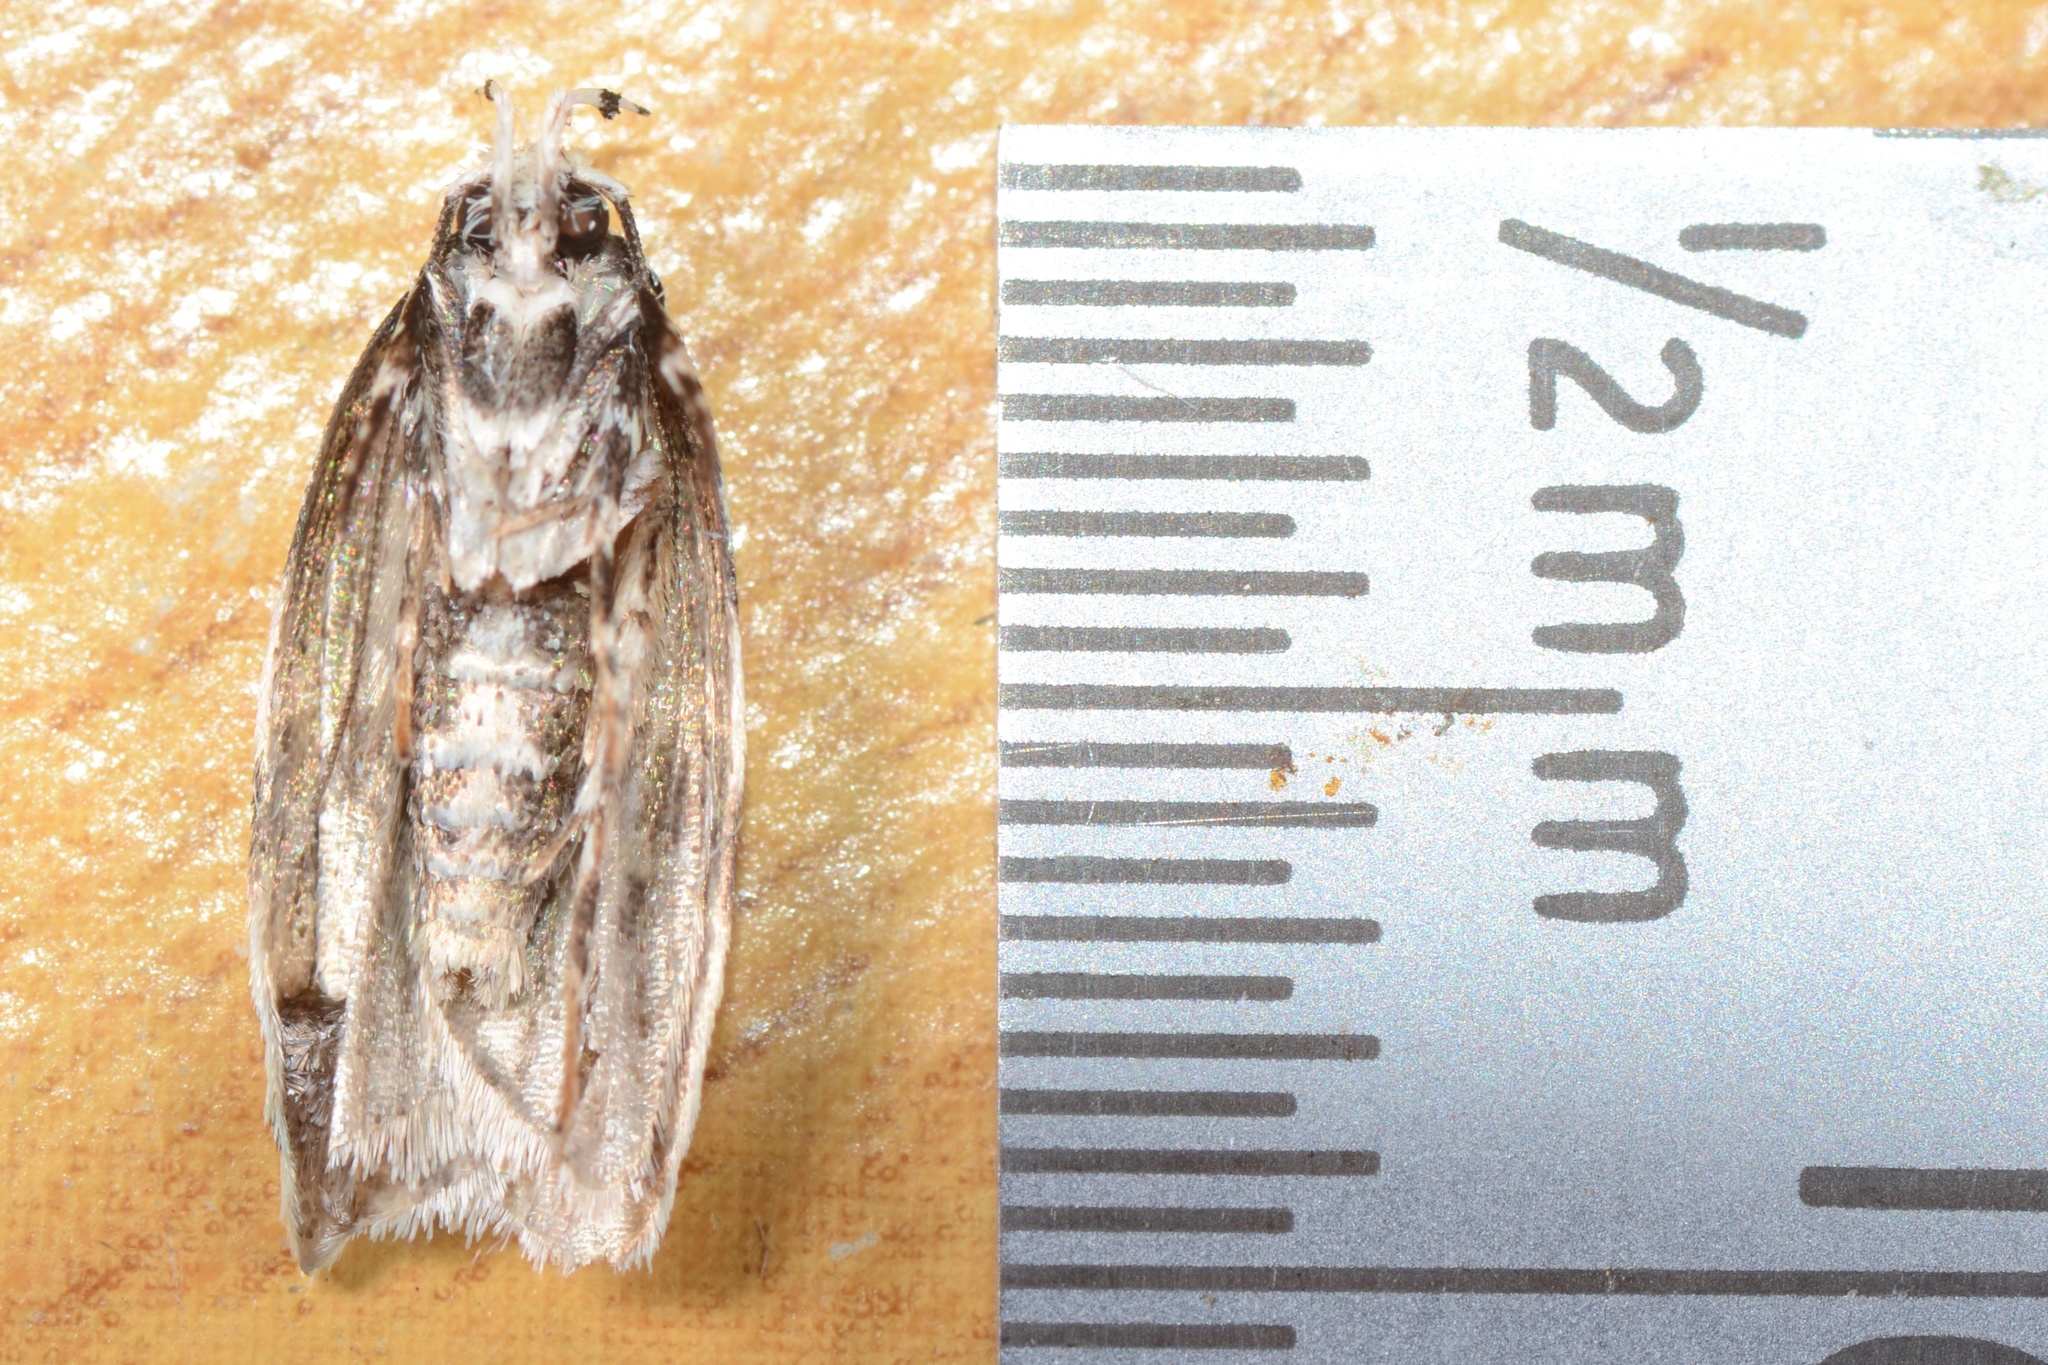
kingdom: Animalia
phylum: Arthropoda
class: Insecta
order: Lepidoptera
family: Oecophoridae
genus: Izatha
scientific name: Izatha huttoni
